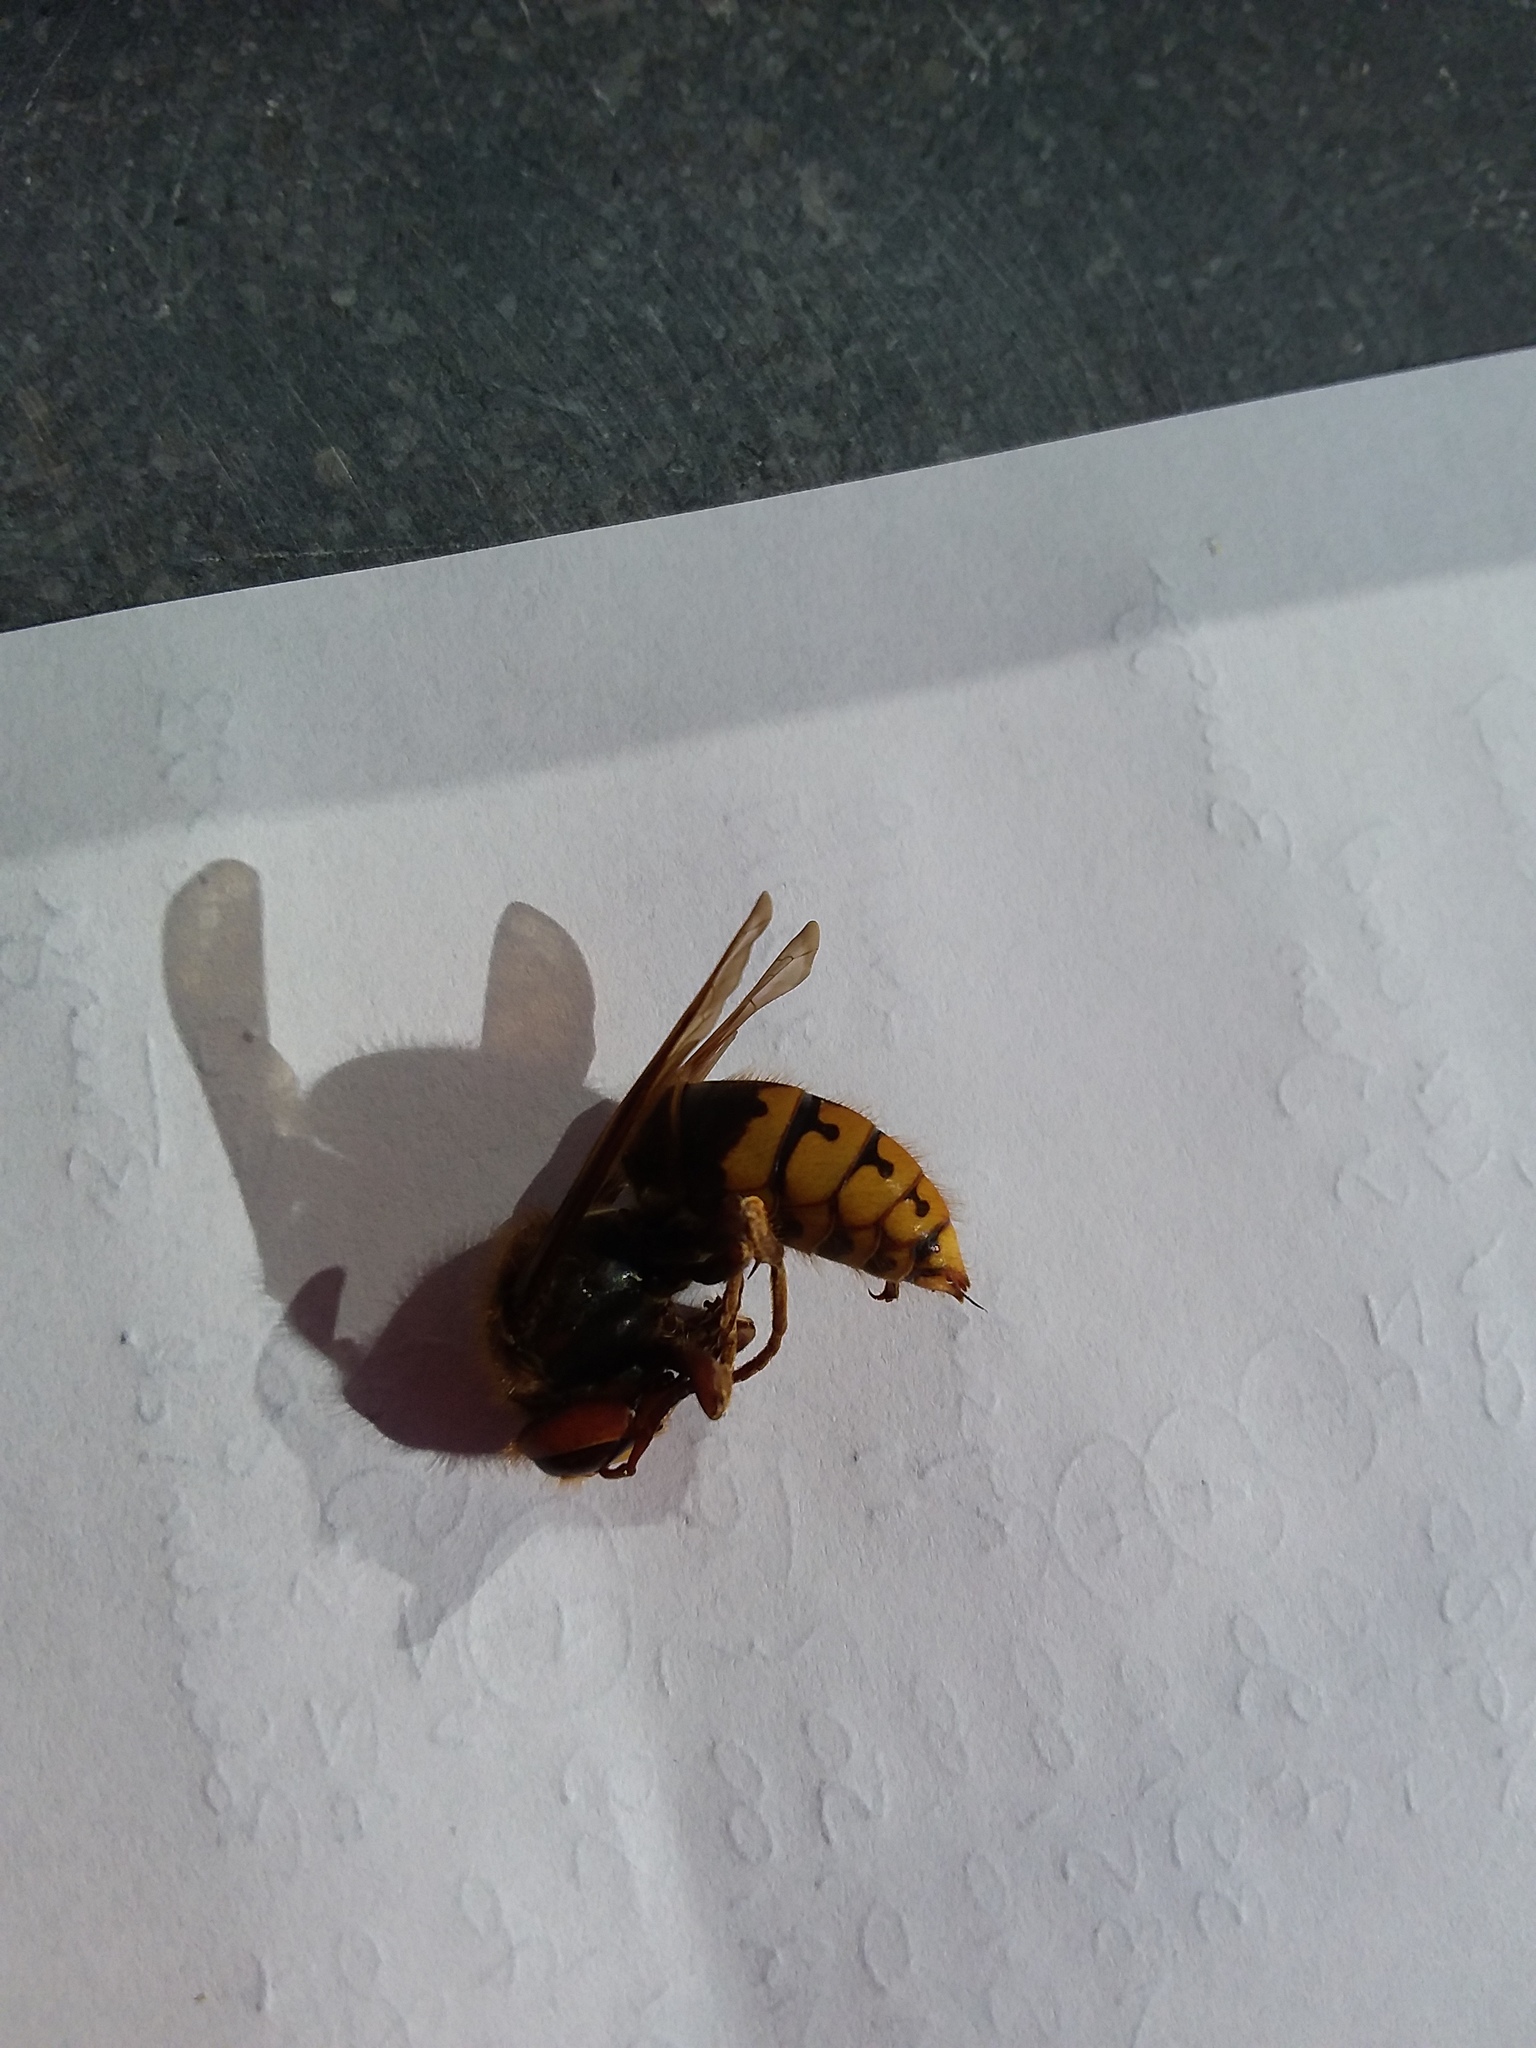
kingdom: Animalia
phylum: Arthropoda
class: Insecta
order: Hymenoptera
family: Vespidae
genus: Vespa
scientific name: Vespa crabro
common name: Hornet
